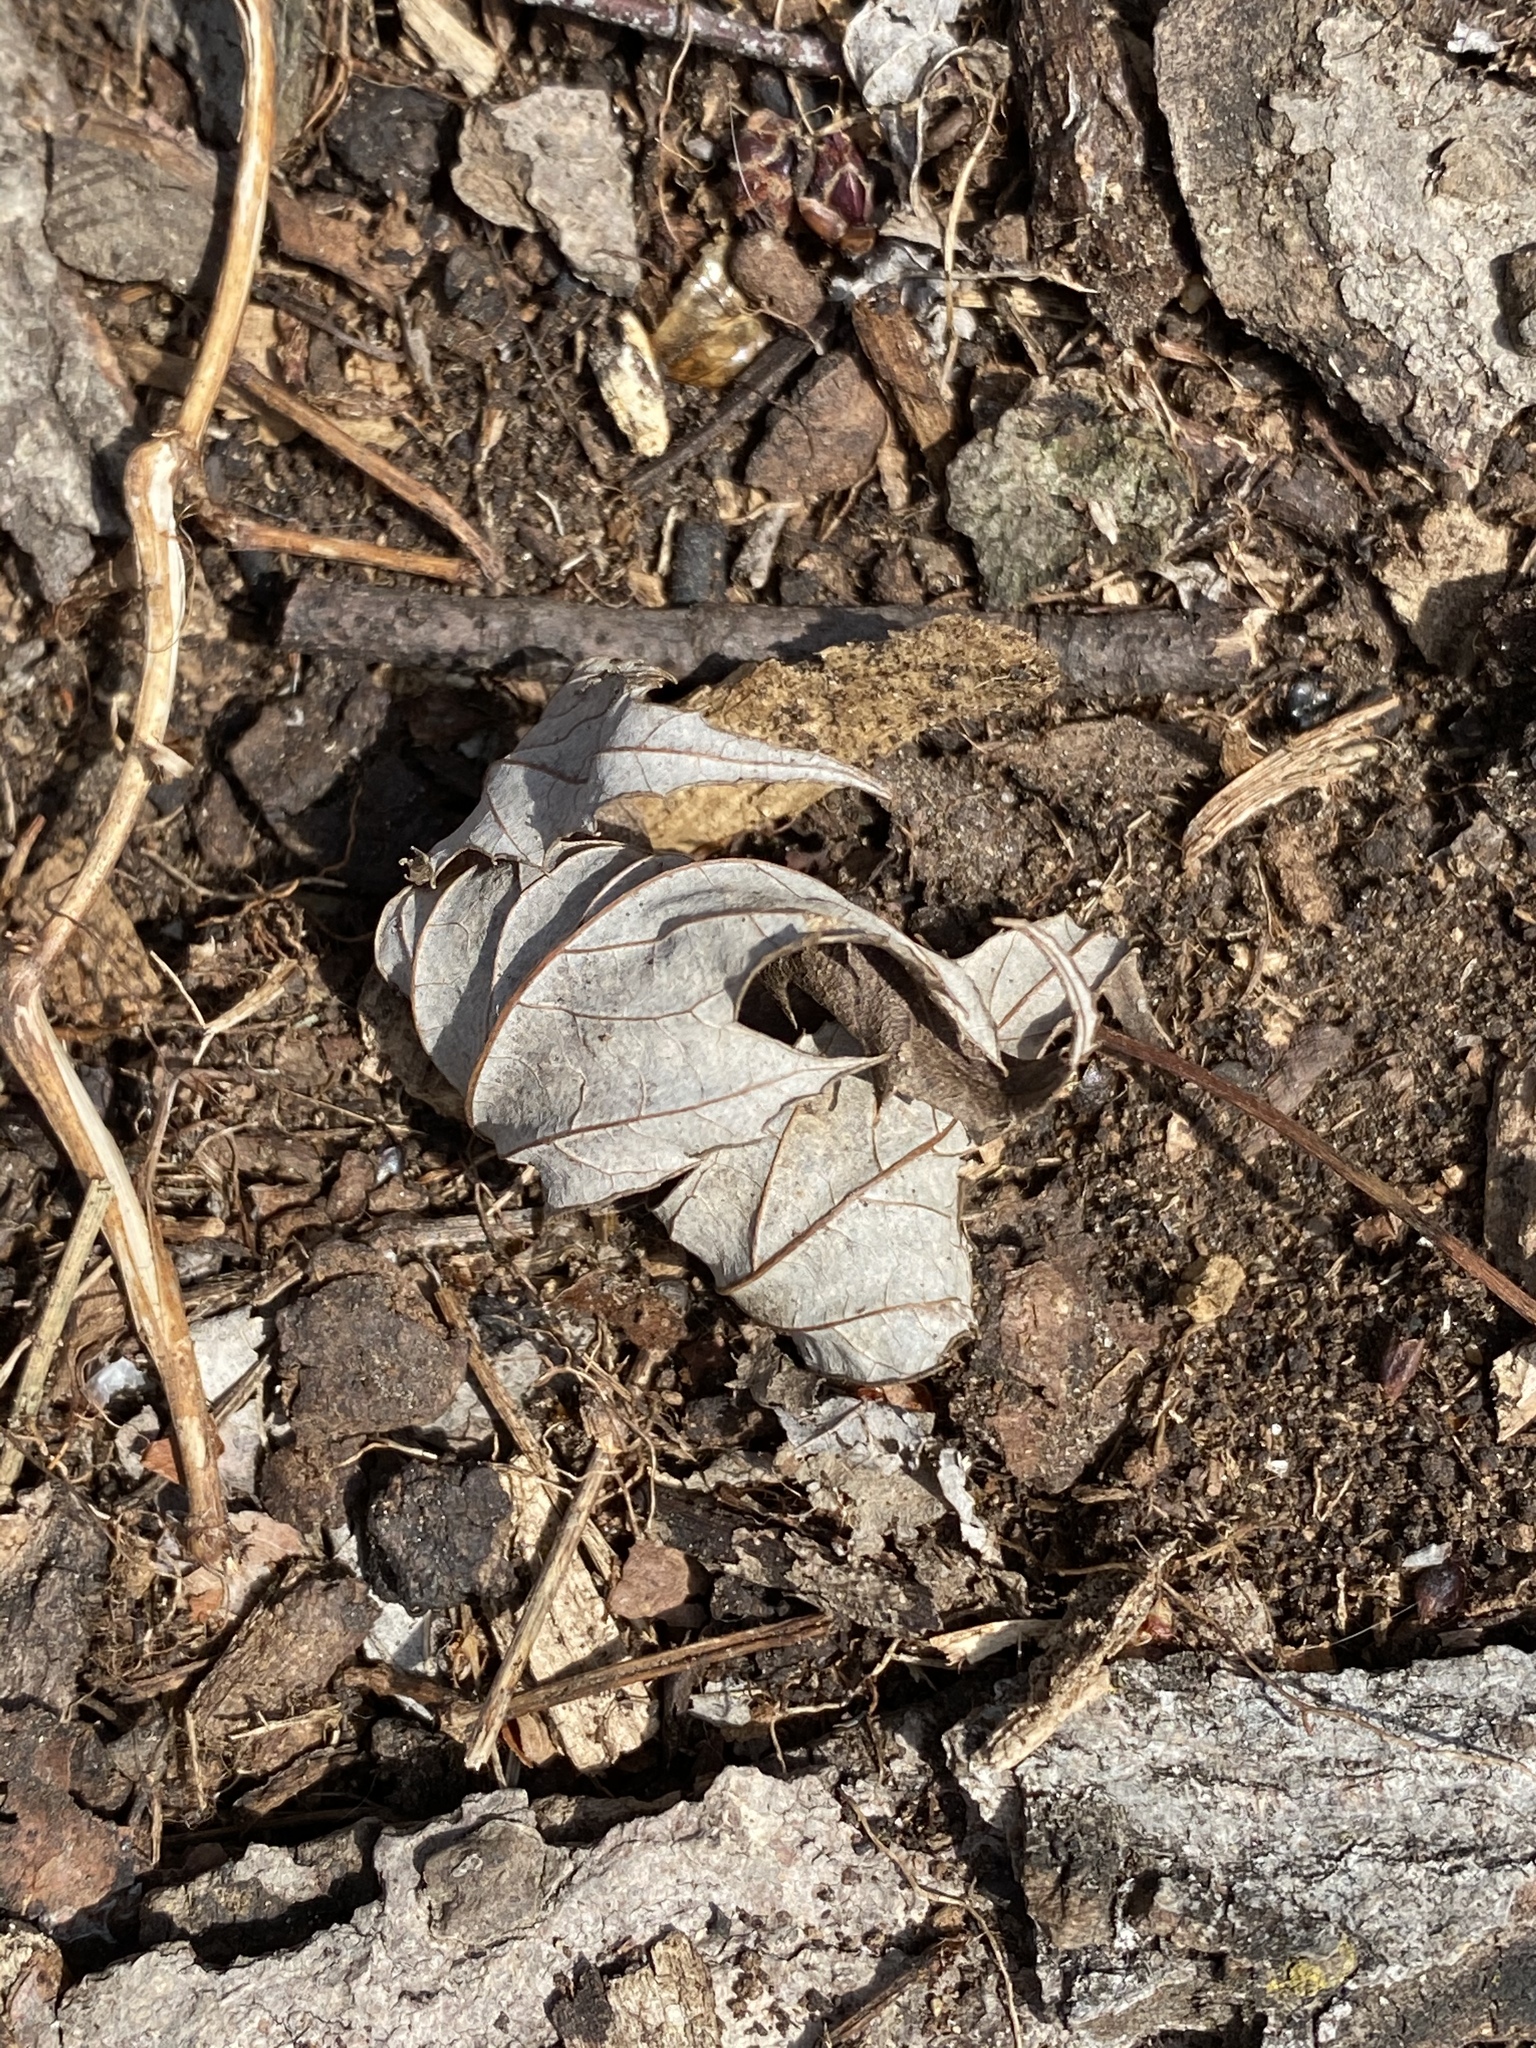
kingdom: Plantae
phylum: Tracheophyta
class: Magnoliopsida
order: Sapindales
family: Sapindaceae
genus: Acer
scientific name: Acer saccharinum
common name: Silver maple
